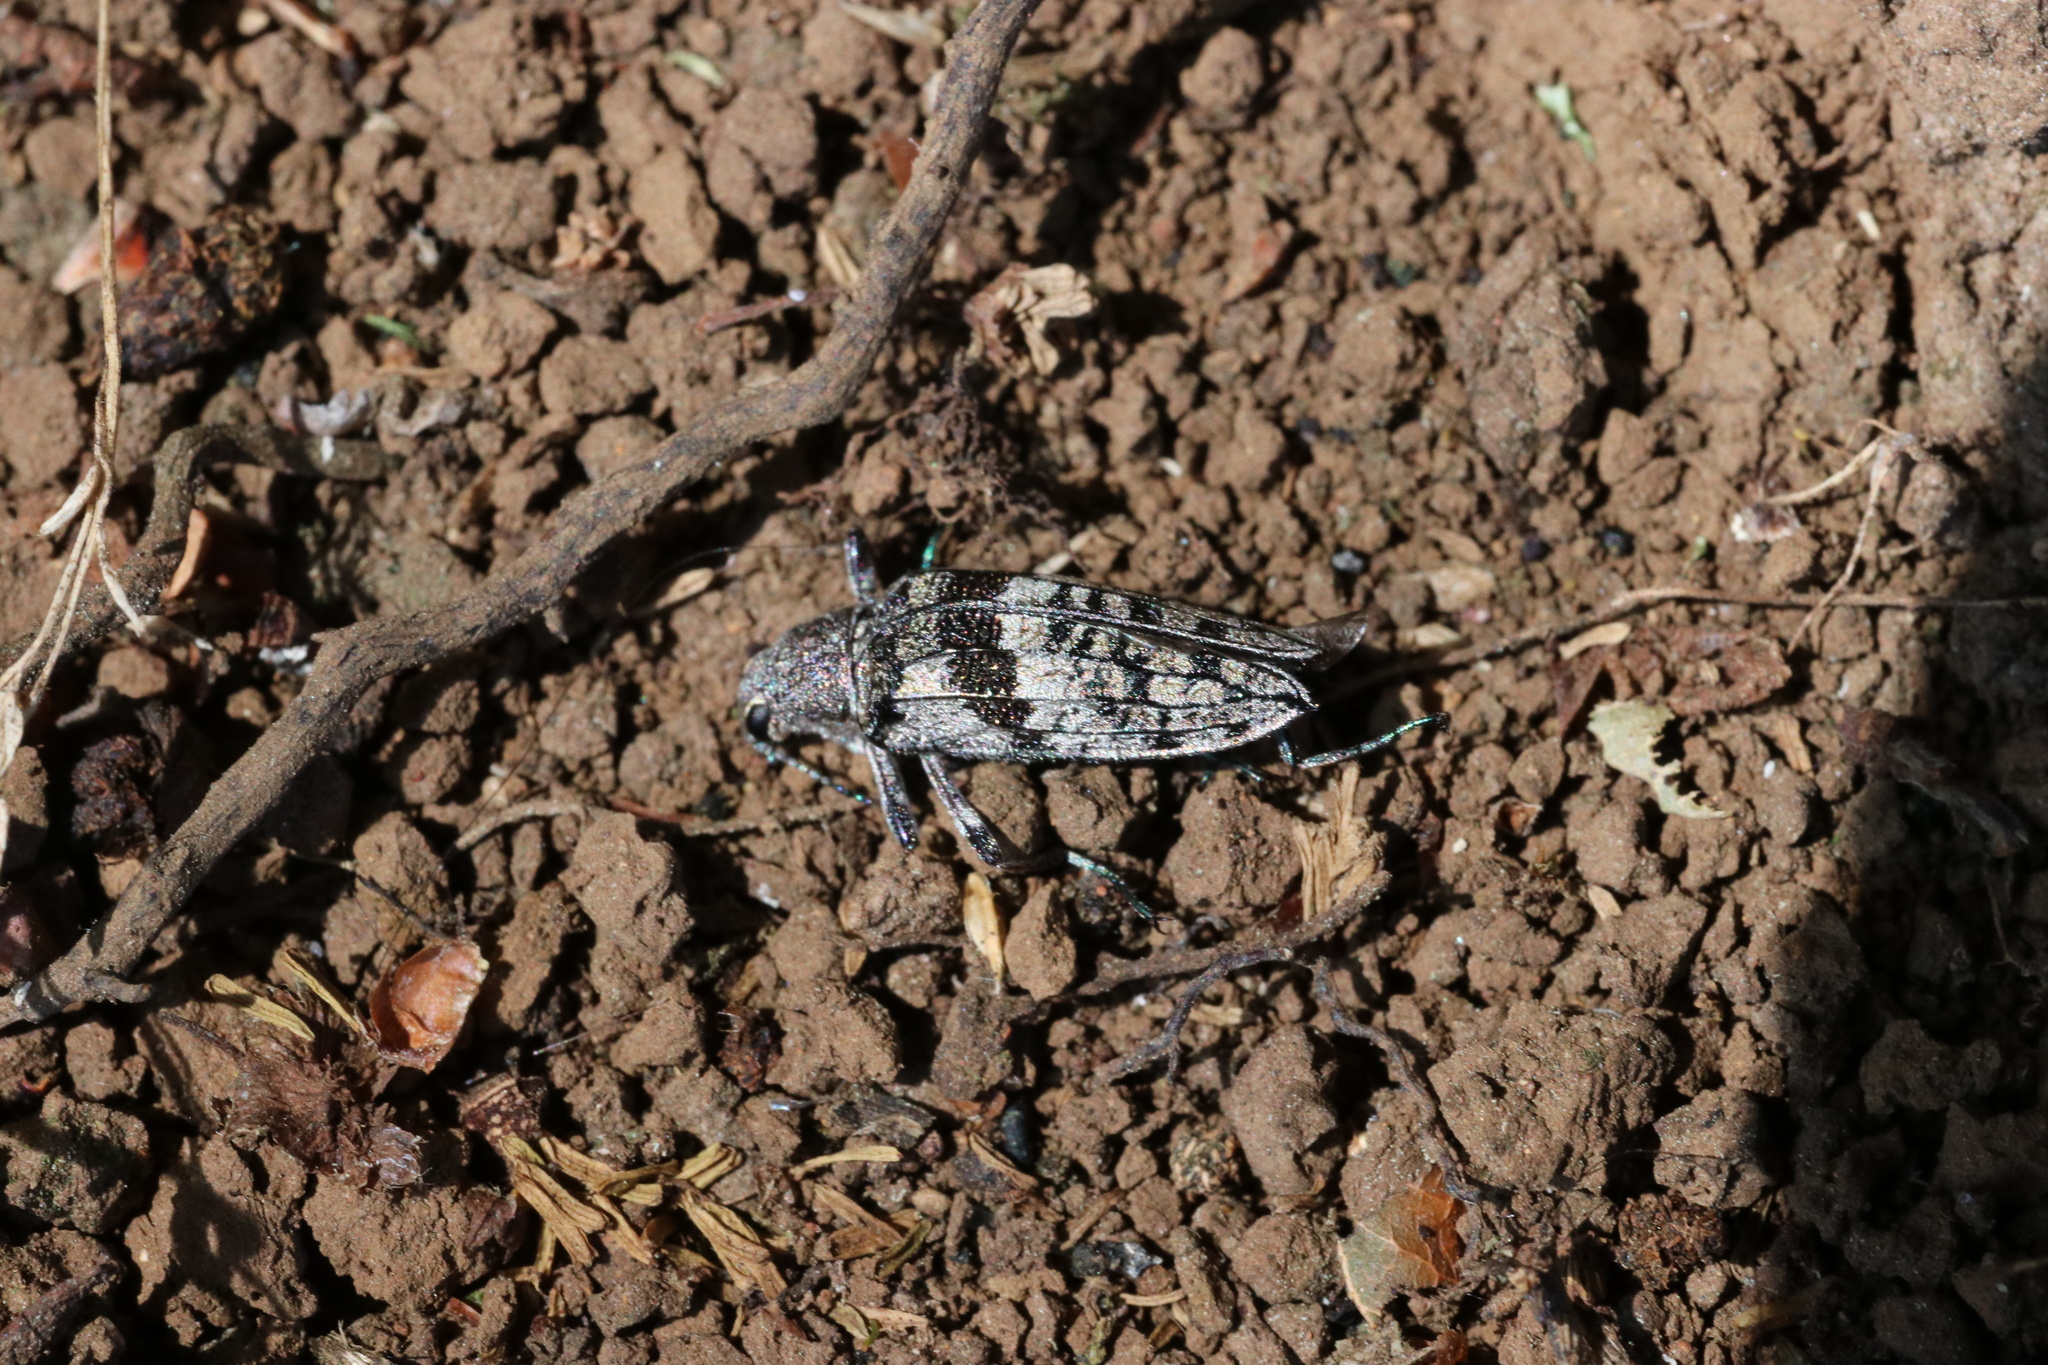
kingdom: Animalia
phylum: Arthropoda
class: Insecta
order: Coleoptera
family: Tenebrionidae
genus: Homocyrtus
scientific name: Homocyrtus
